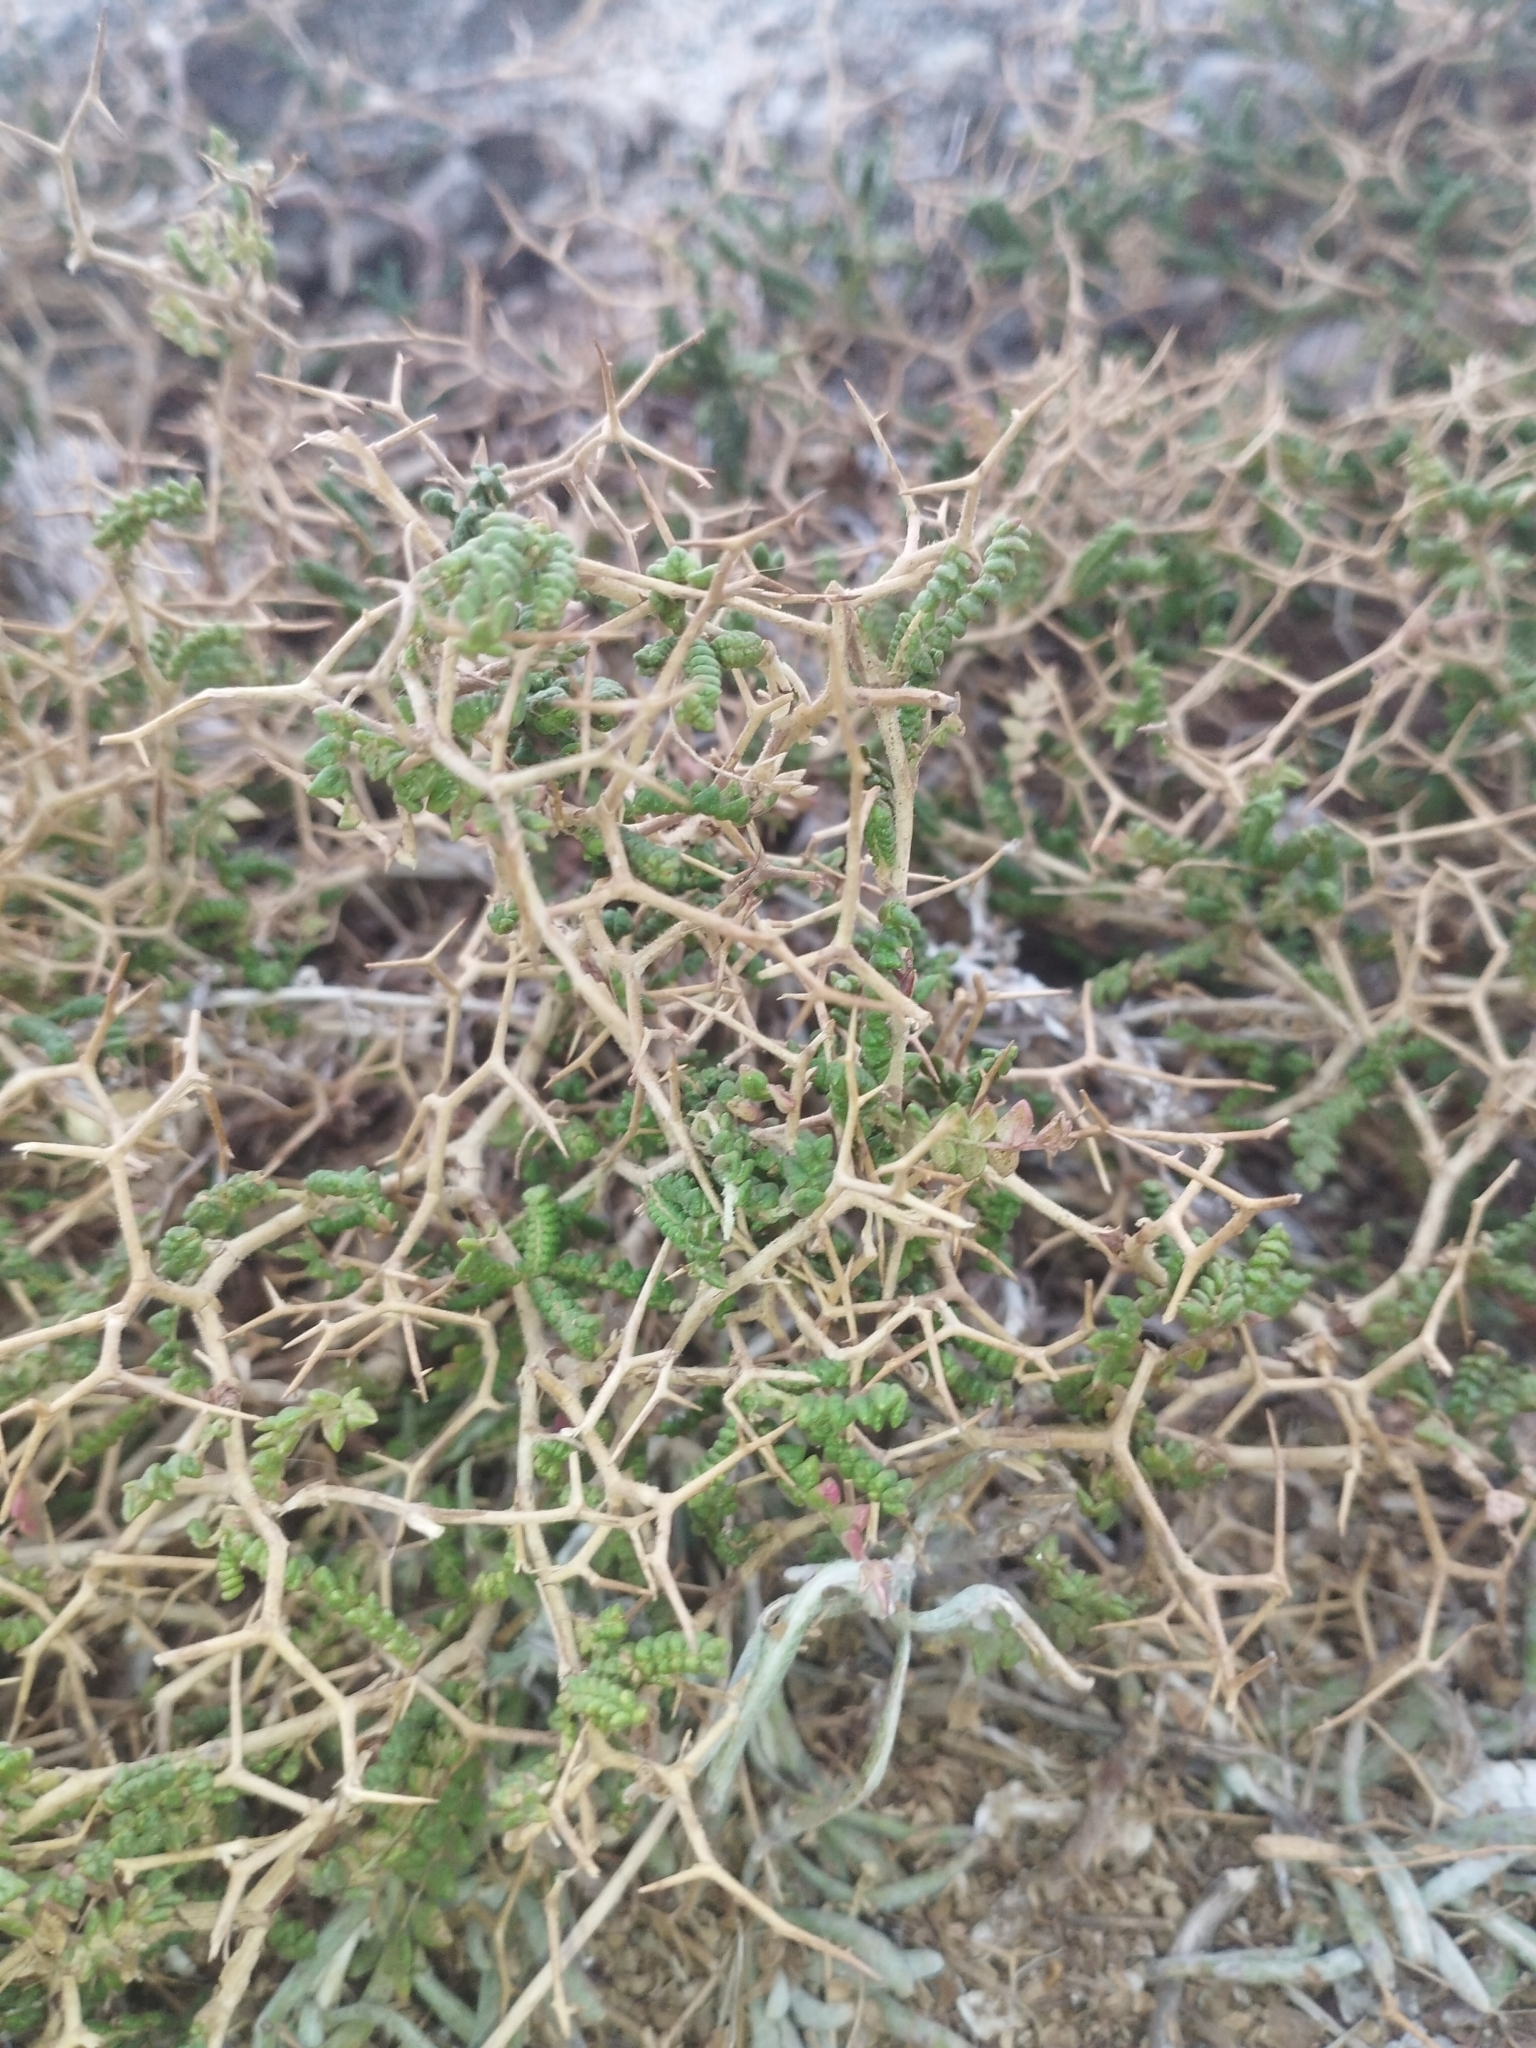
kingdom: Plantae
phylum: Tracheophyta
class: Magnoliopsida
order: Rosales
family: Rosaceae
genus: Sarcopoterium
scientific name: Sarcopoterium spinosum
